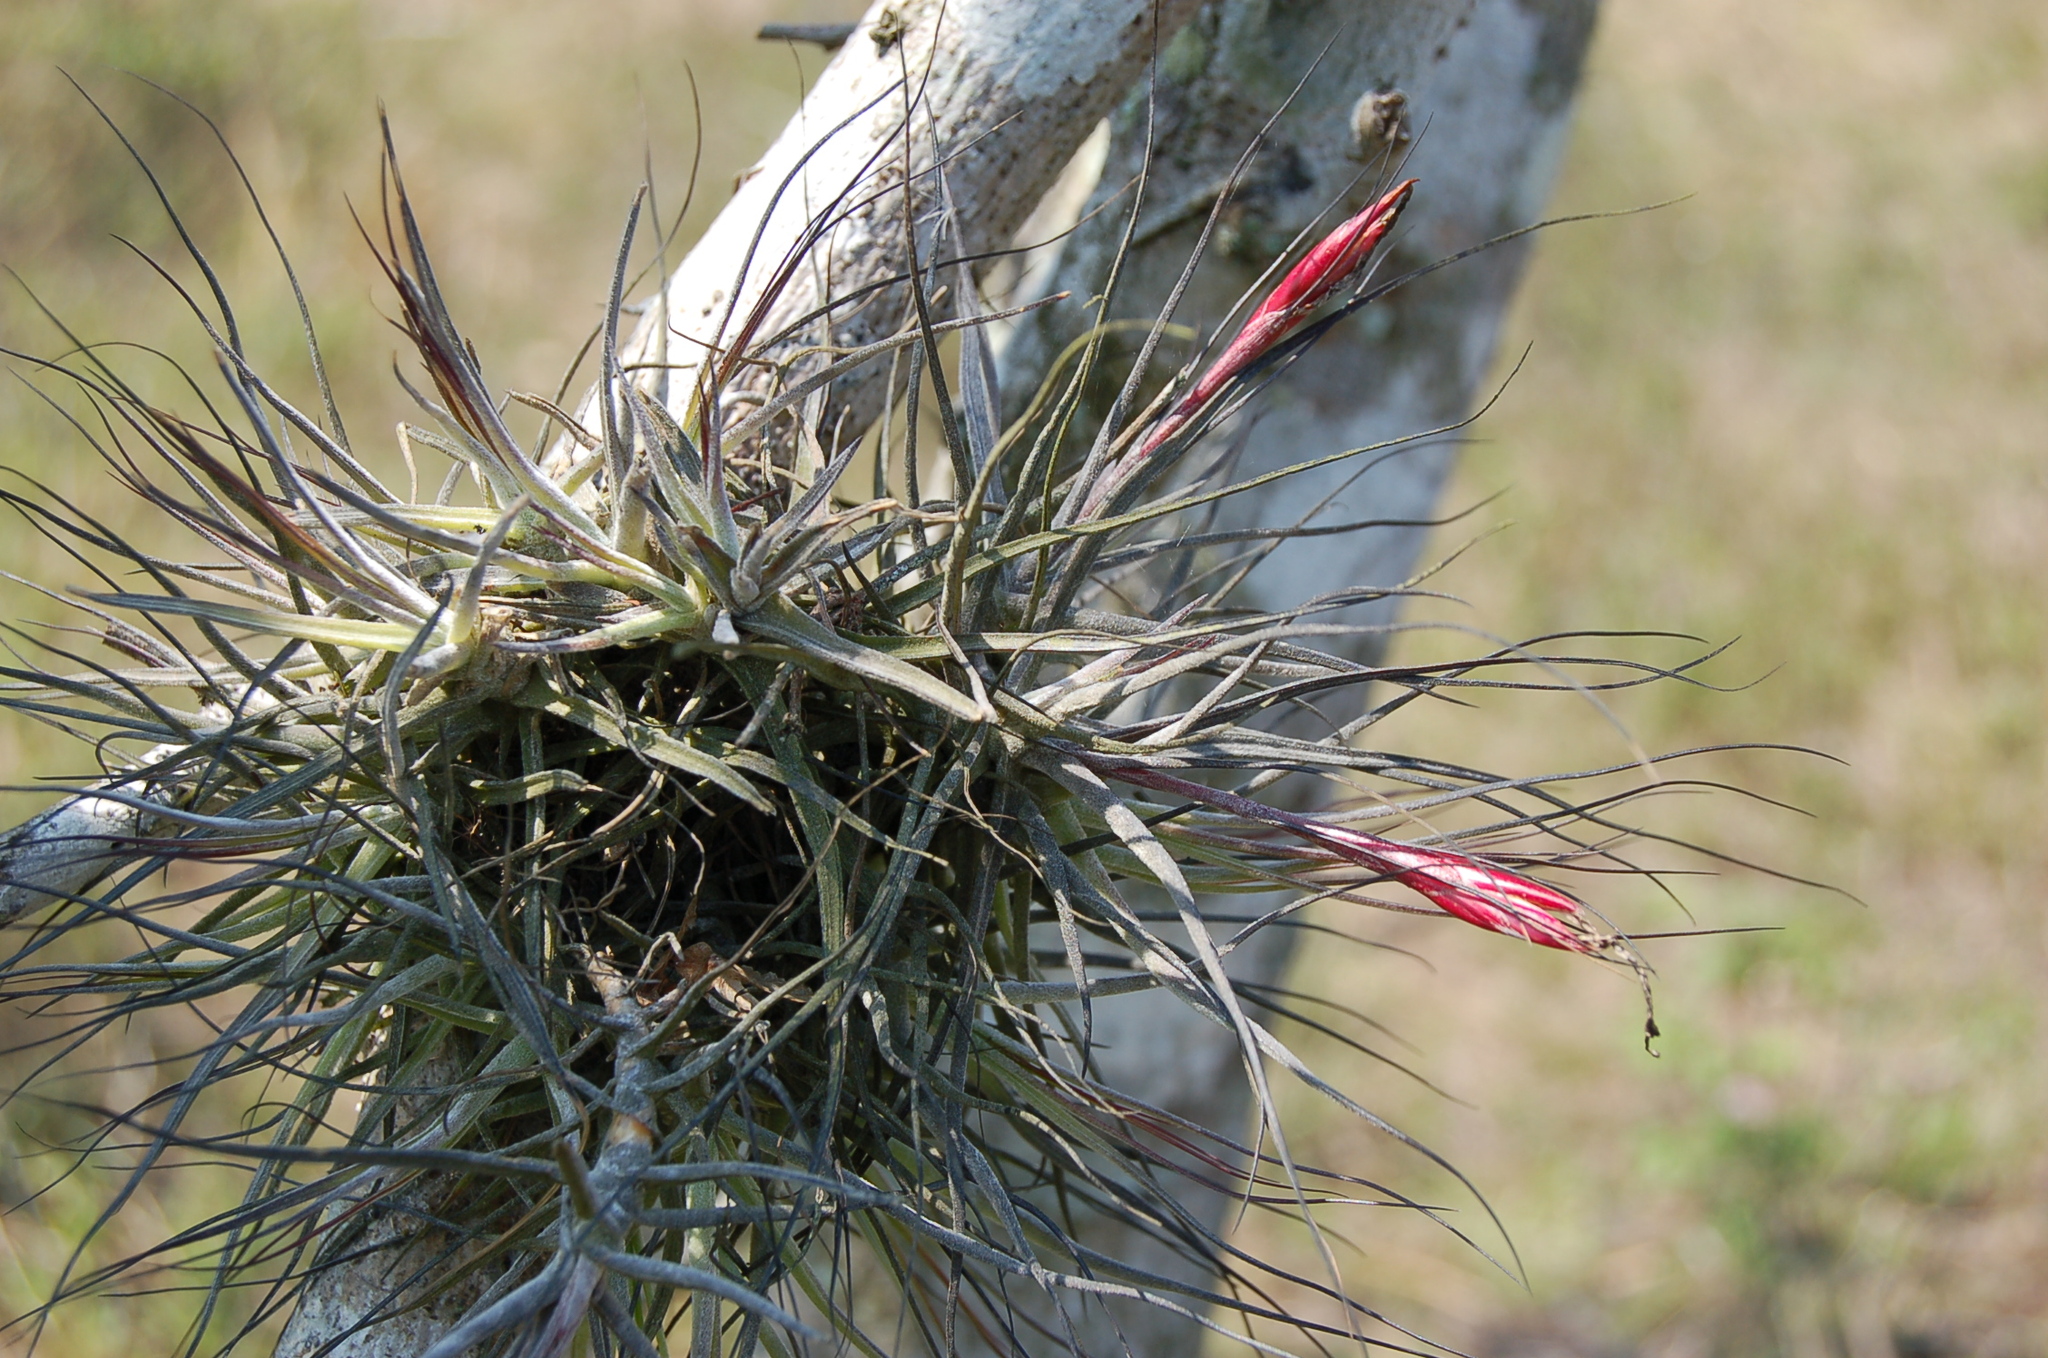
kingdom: Plantae
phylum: Tracheophyta
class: Liliopsida
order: Poales
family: Bromeliaceae
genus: Tillandsia
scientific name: Tillandsia schiedeana
